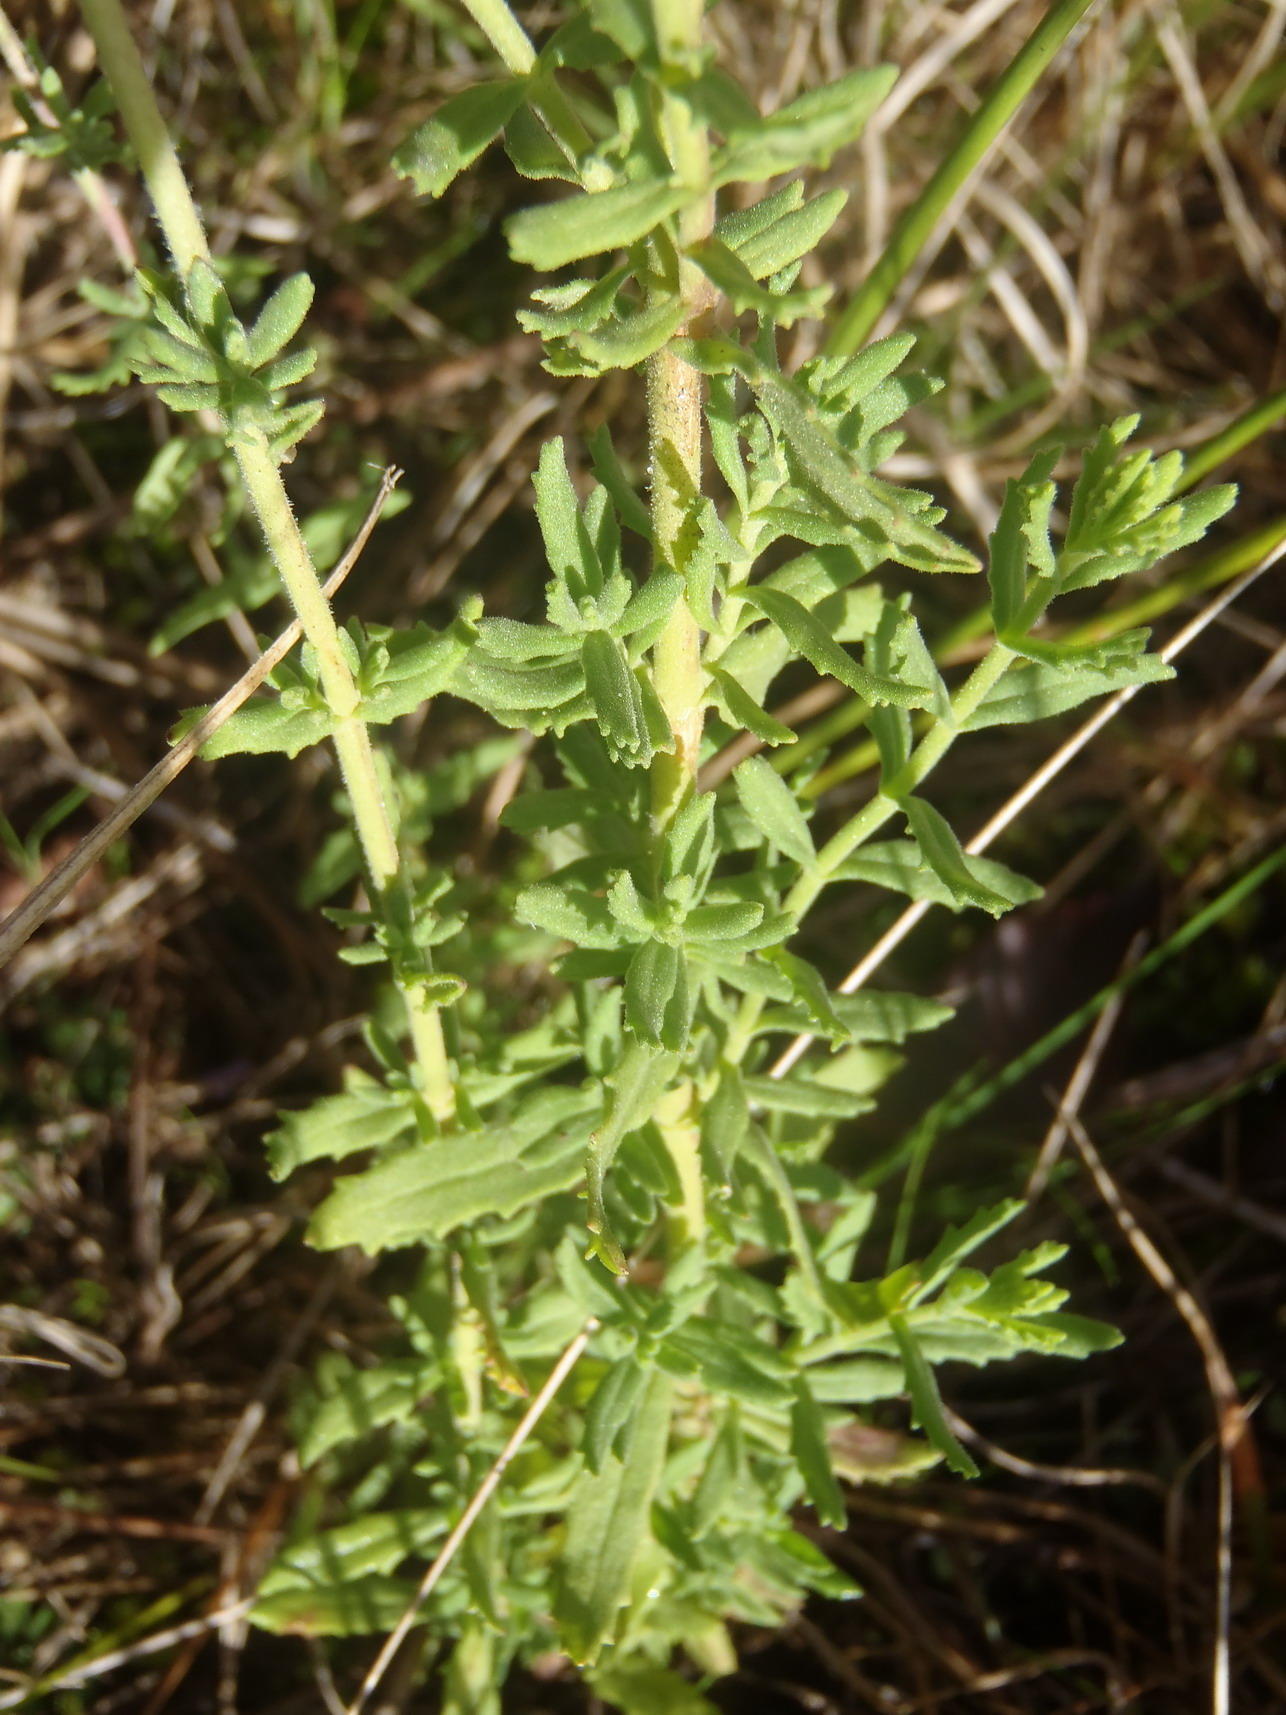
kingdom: Plantae
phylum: Tracheophyta
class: Magnoliopsida
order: Lamiales
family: Scrophulariaceae
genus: Chaenostoma
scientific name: Chaenostoma caeruleum
